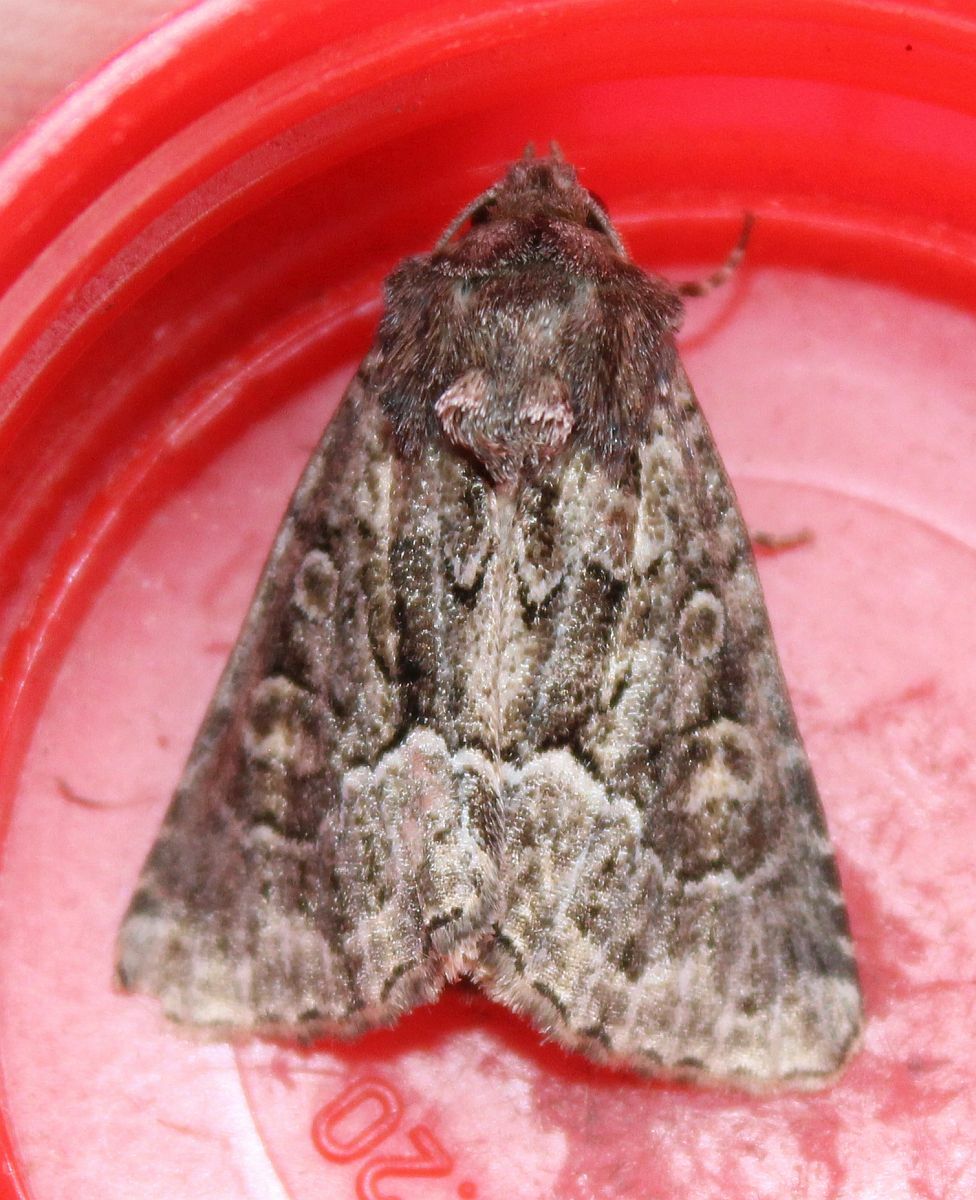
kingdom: Animalia
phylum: Arthropoda
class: Insecta
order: Lepidoptera
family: Noctuidae
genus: Thalpophila
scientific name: Thalpophila matura
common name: Straw underwing
